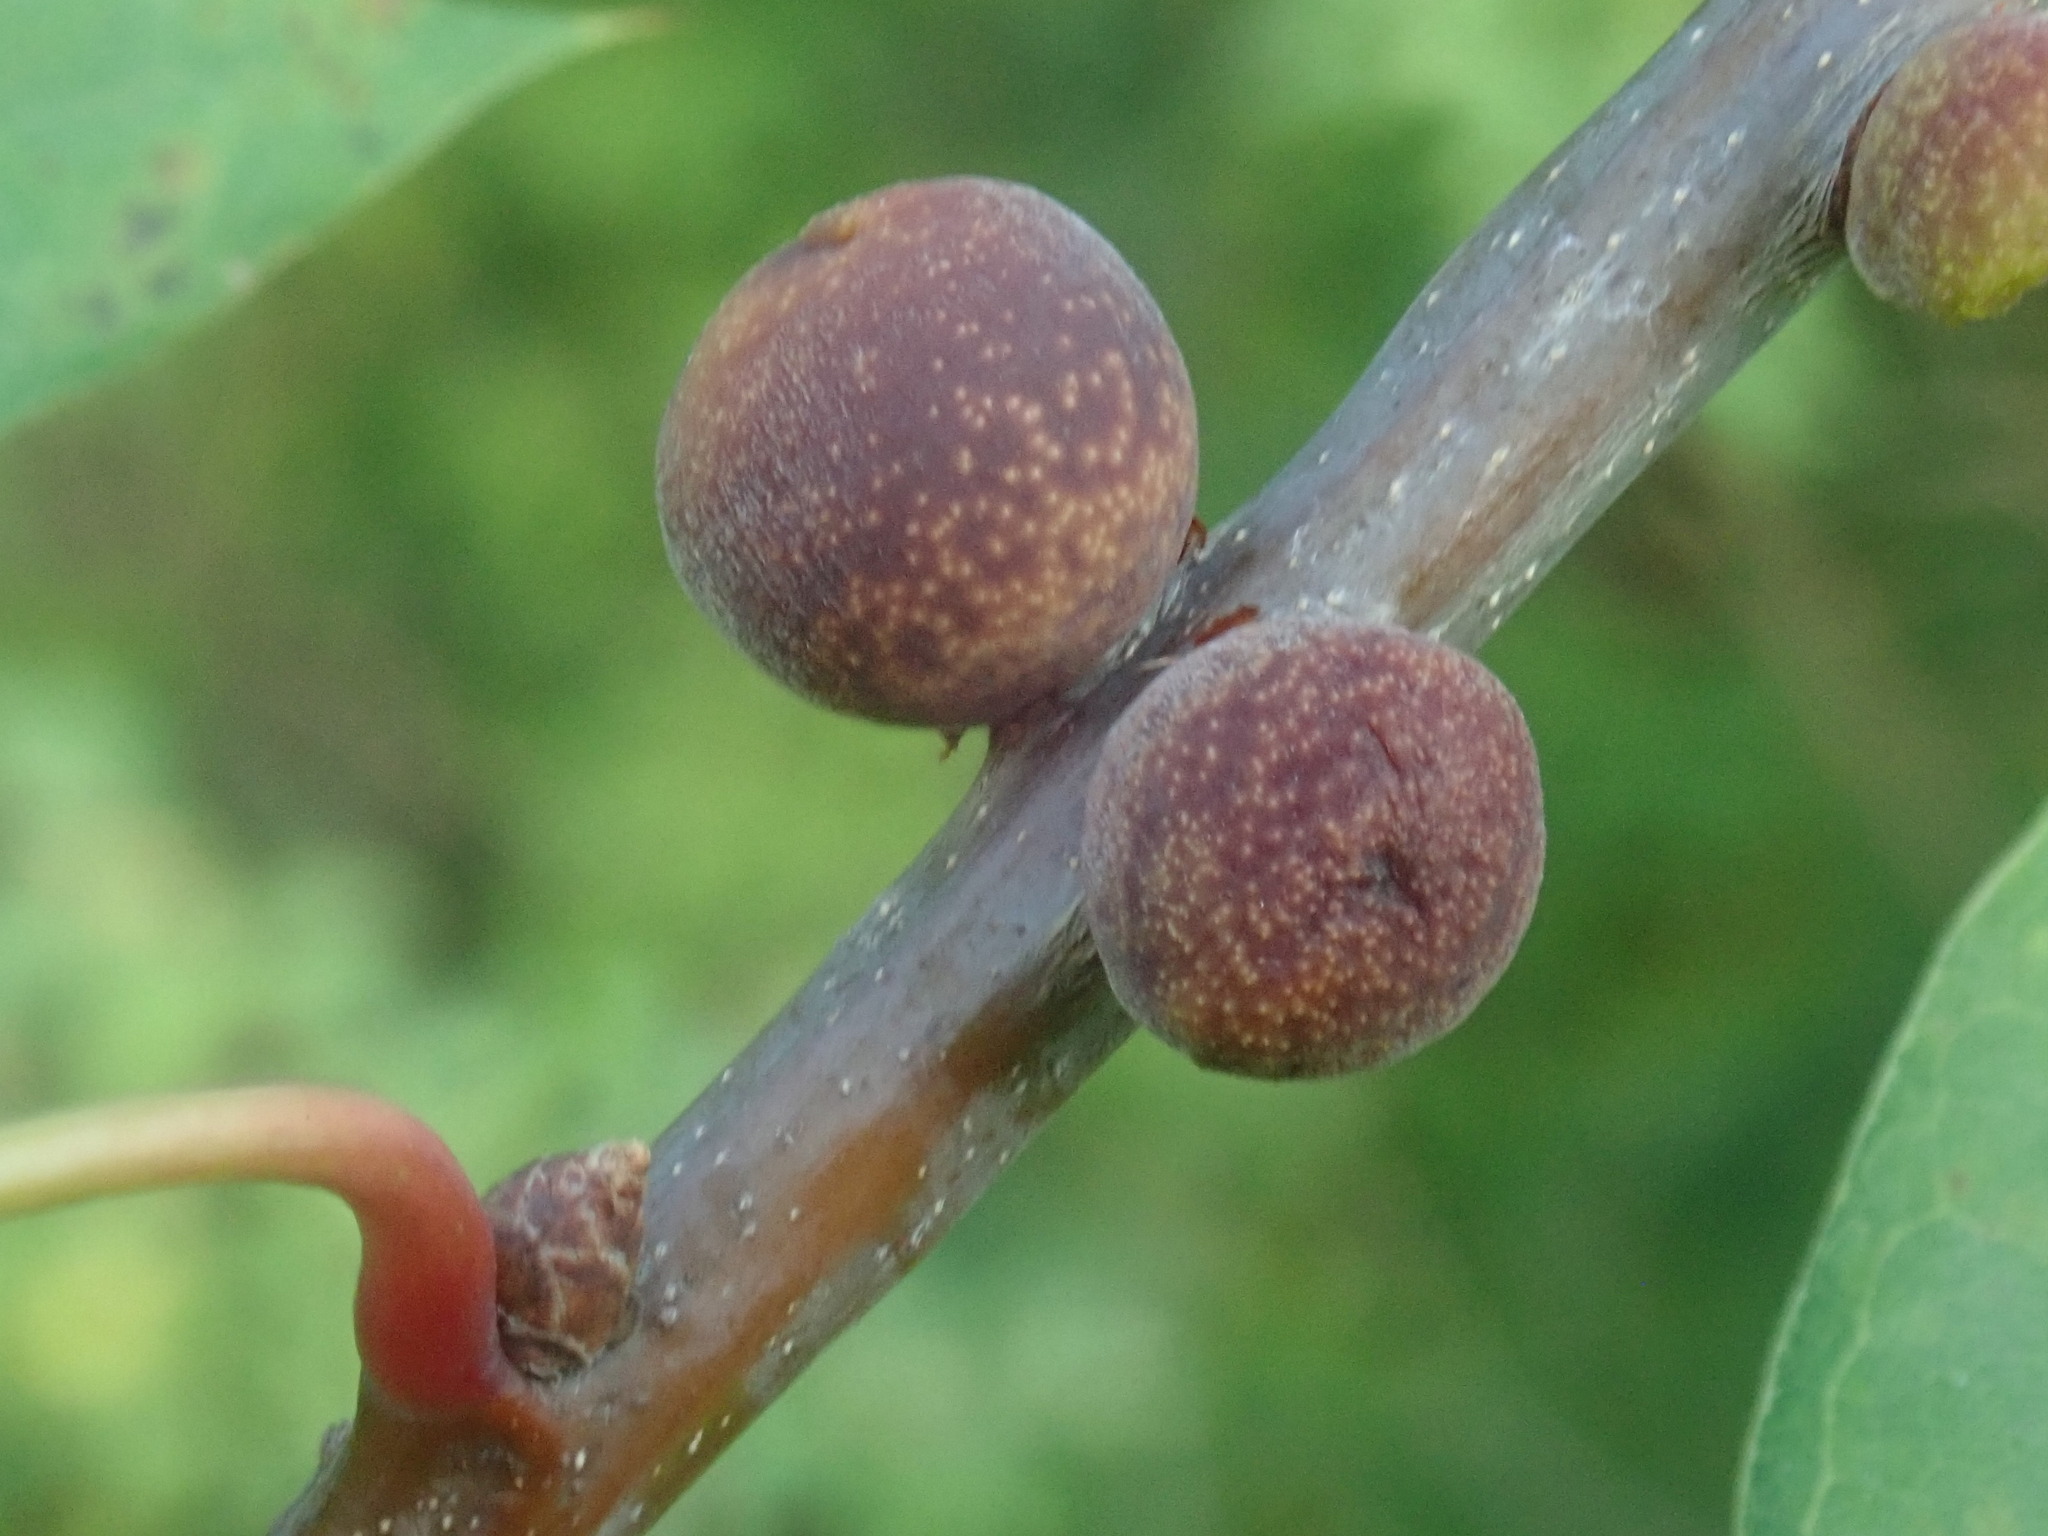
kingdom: Animalia
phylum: Arthropoda
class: Insecta
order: Hymenoptera
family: Cynipidae
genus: Kokkocynips
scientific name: Kokkocynips imbricariae
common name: Banded bullet gall wasp
